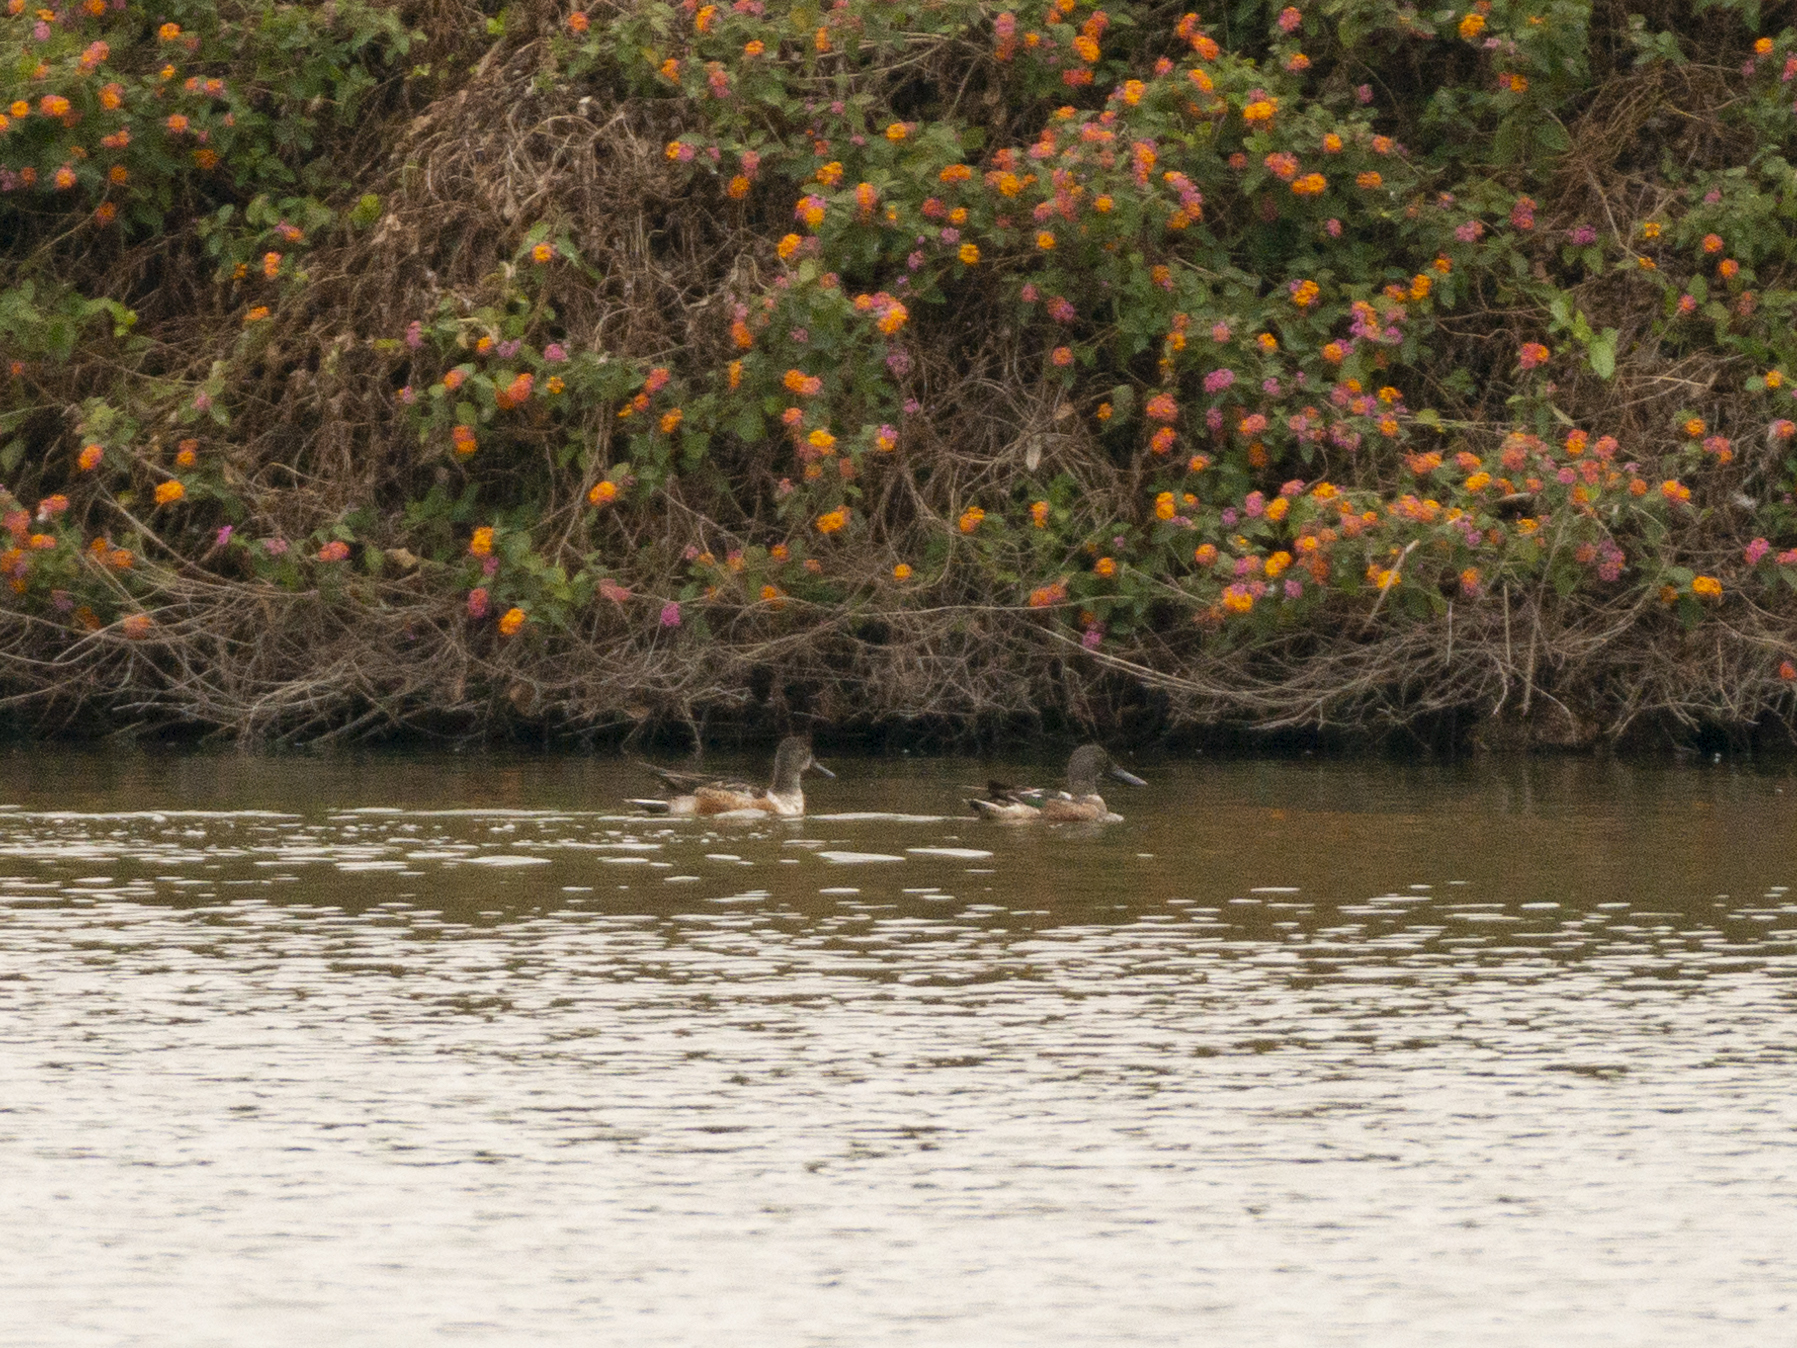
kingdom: Animalia
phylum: Chordata
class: Aves
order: Anseriformes
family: Anatidae
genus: Spatula
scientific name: Spatula clypeata
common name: Northern shoveler
